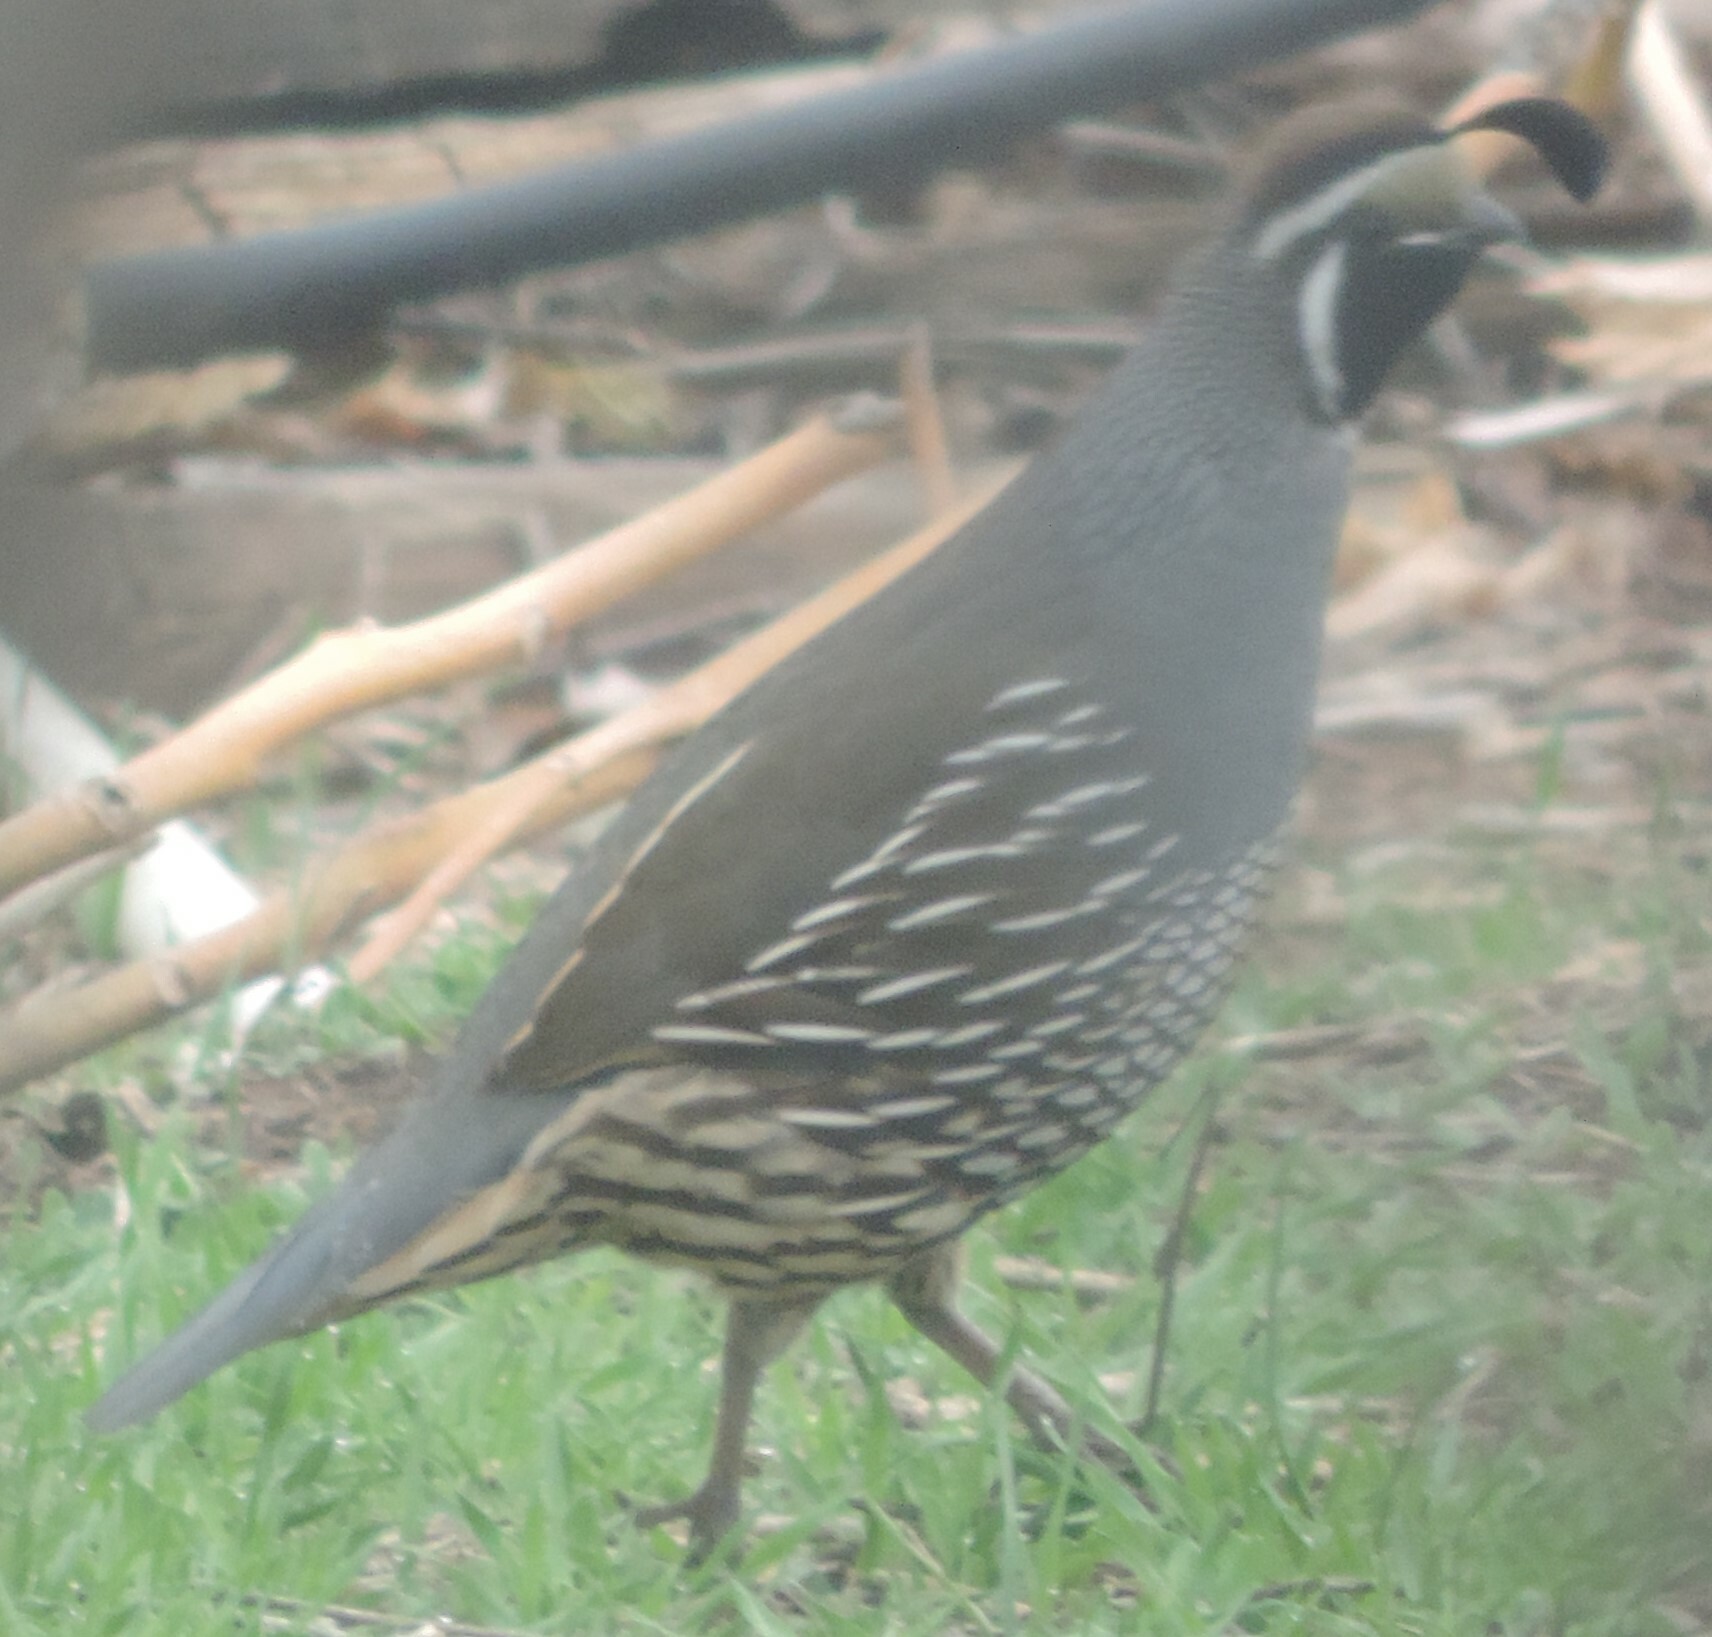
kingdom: Animalia
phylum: Chordata
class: Aves
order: Galliformes
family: Odontophoridae
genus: Callipepla
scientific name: Callipepla californica
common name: California quail
